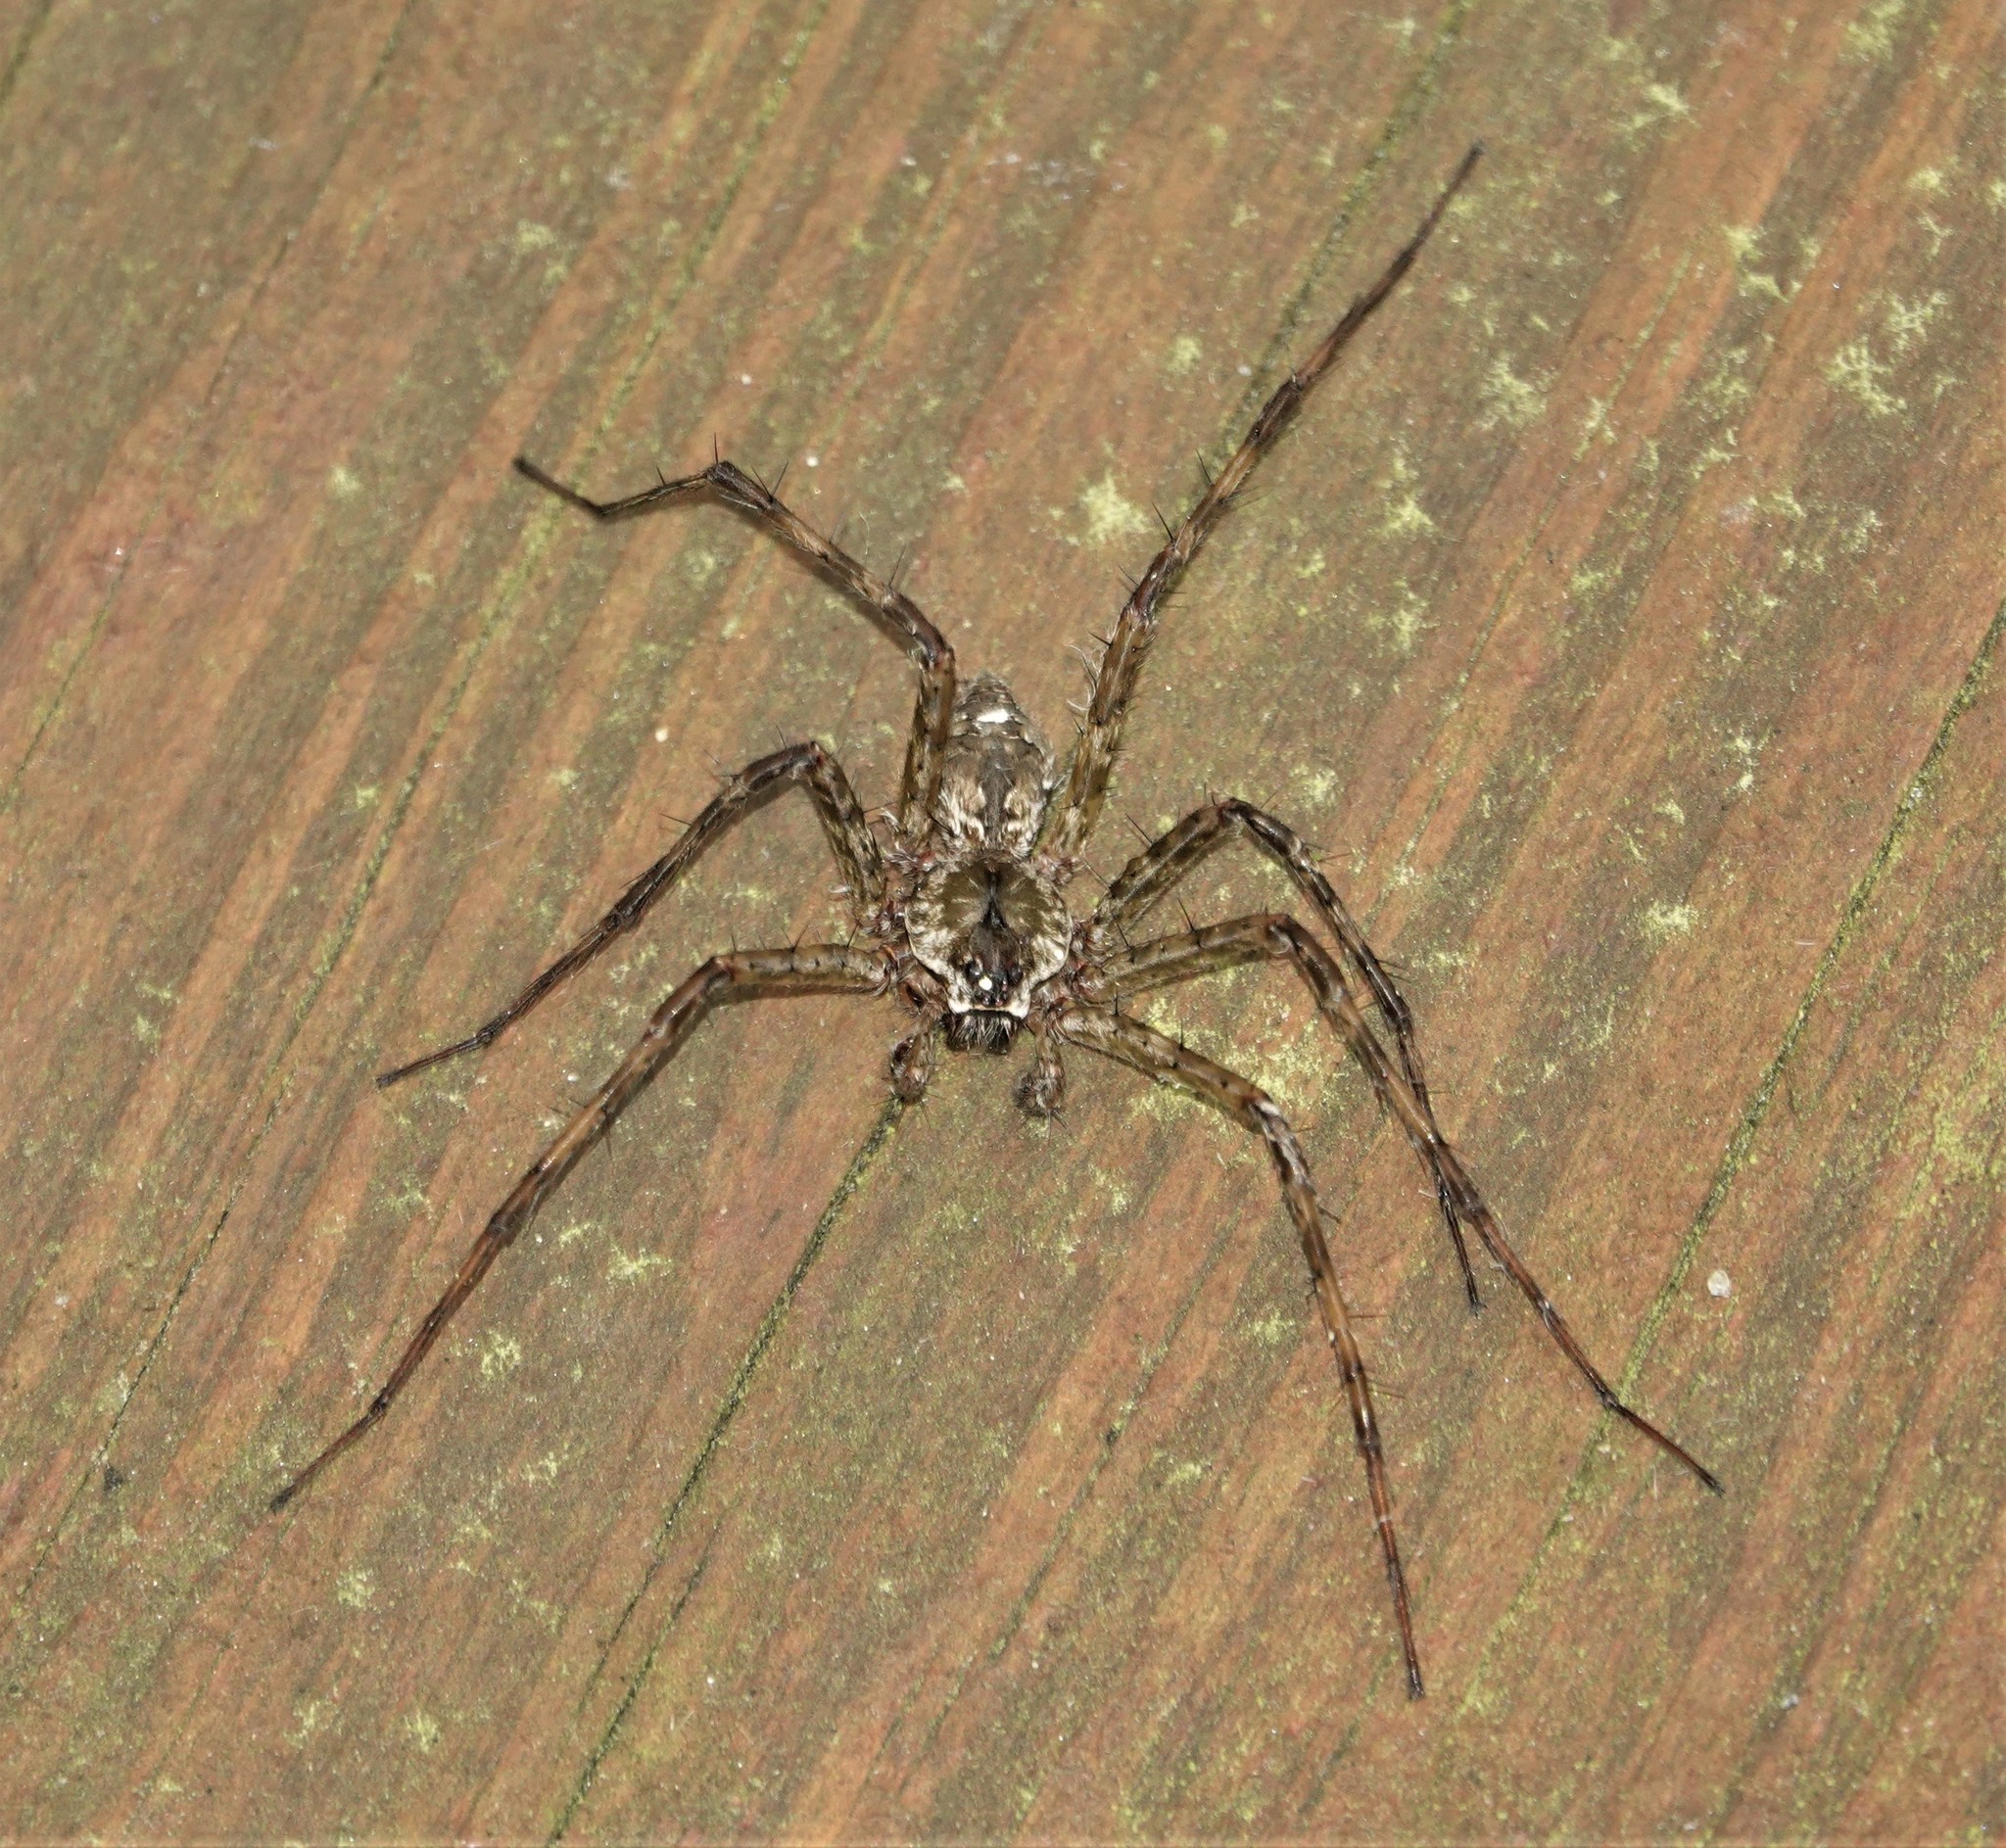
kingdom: Animalia
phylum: Arthropoda
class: Arachnida
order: Araneae
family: Pisauridae
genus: Dolomedes
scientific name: Dolomedes albineus
